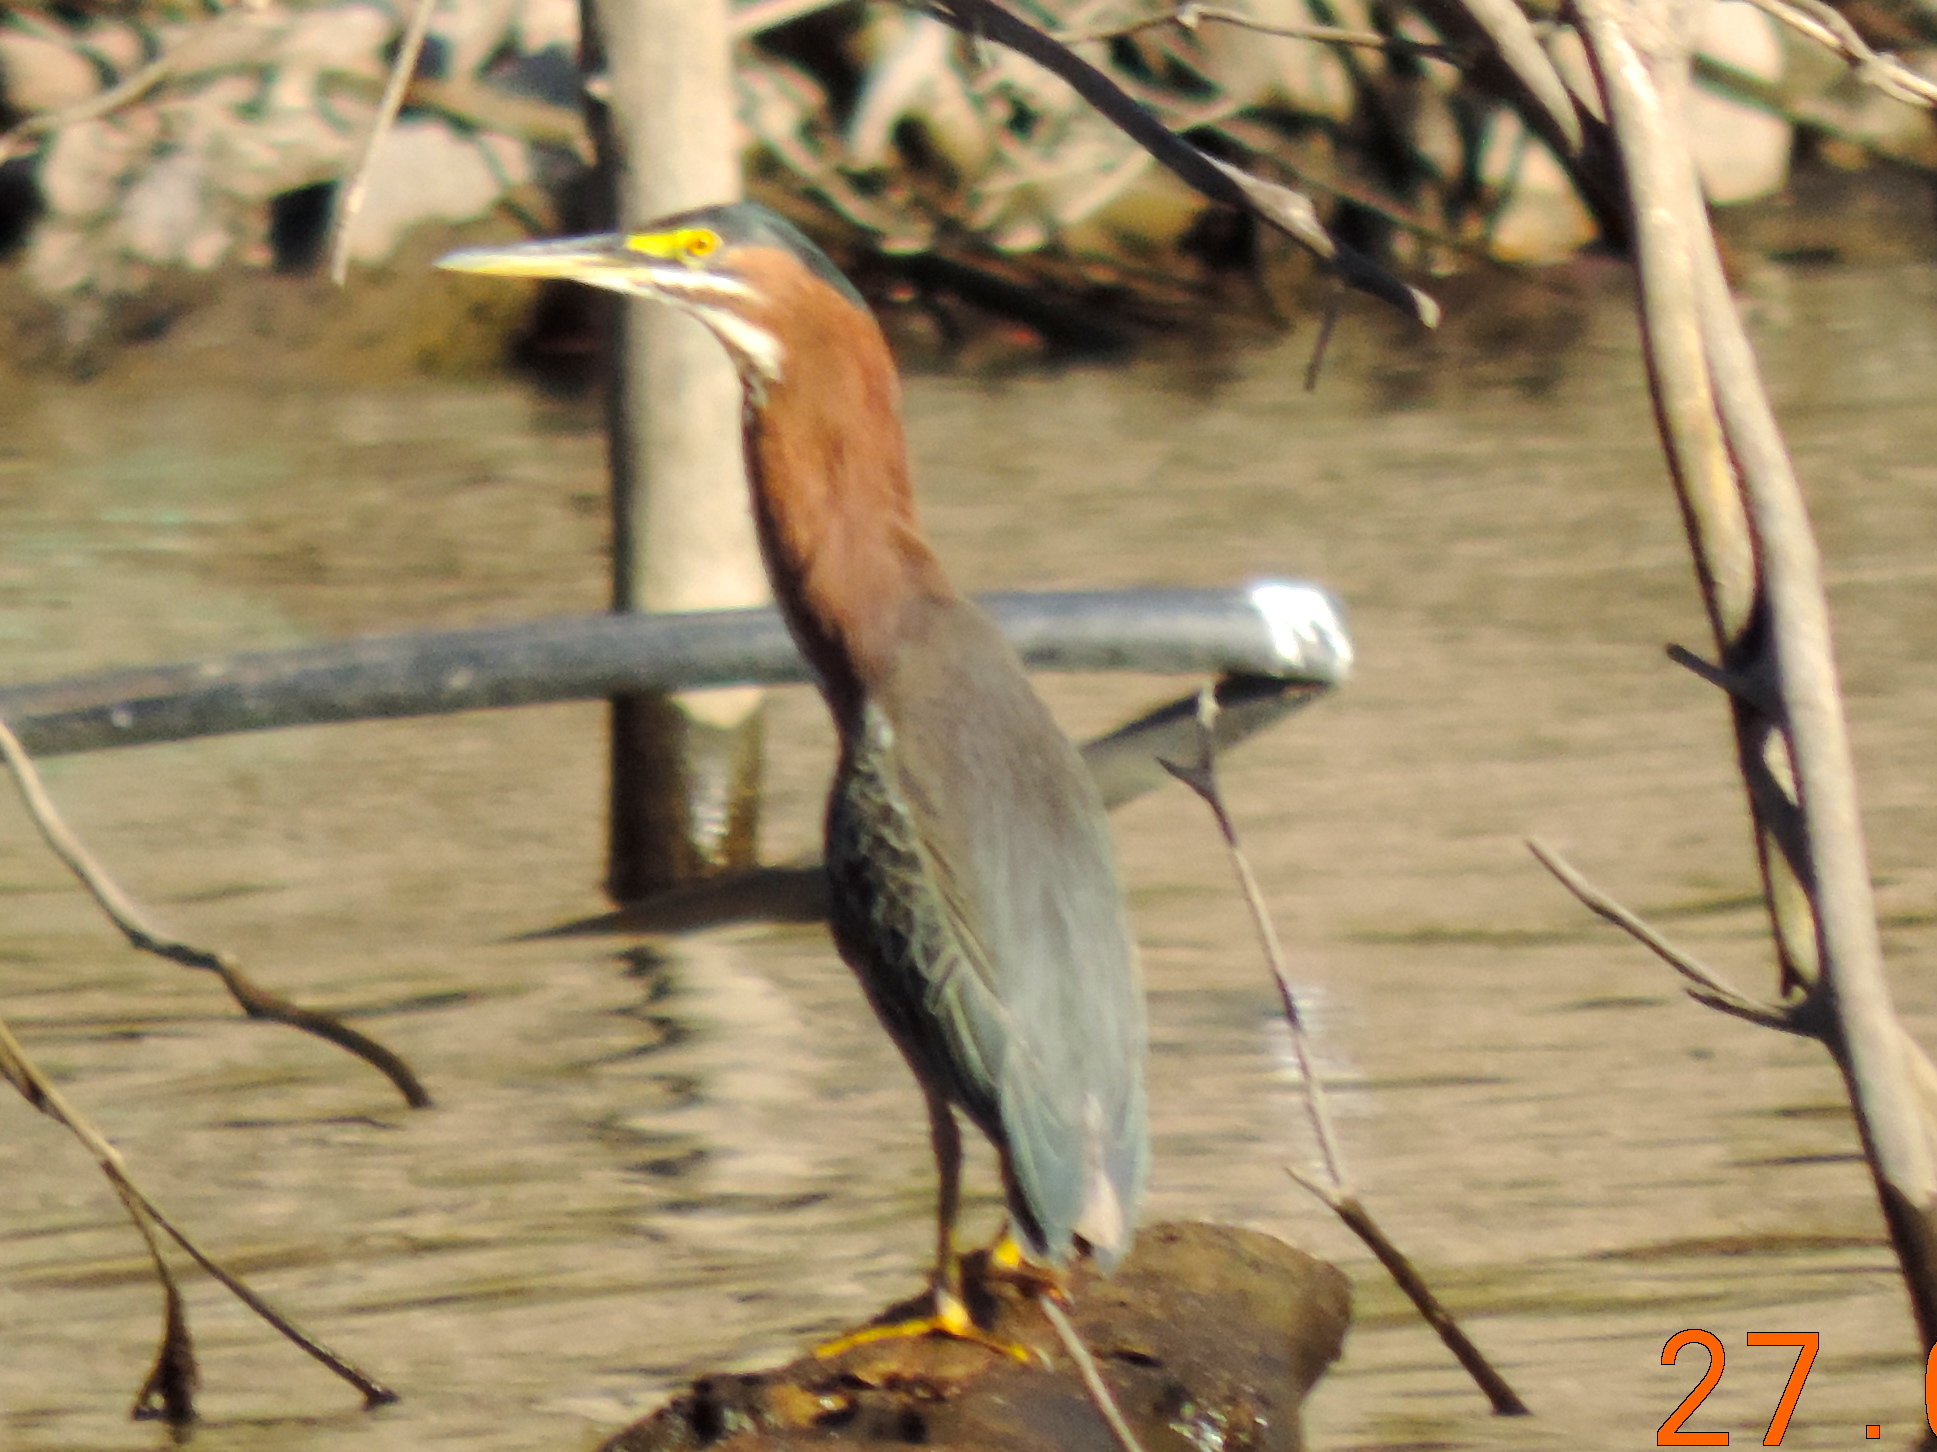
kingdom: Animalia
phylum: Chordata
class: Aves
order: Pelecaniformes
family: Ardeidae
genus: Butorides
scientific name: Butorides virescens
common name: Green heron
